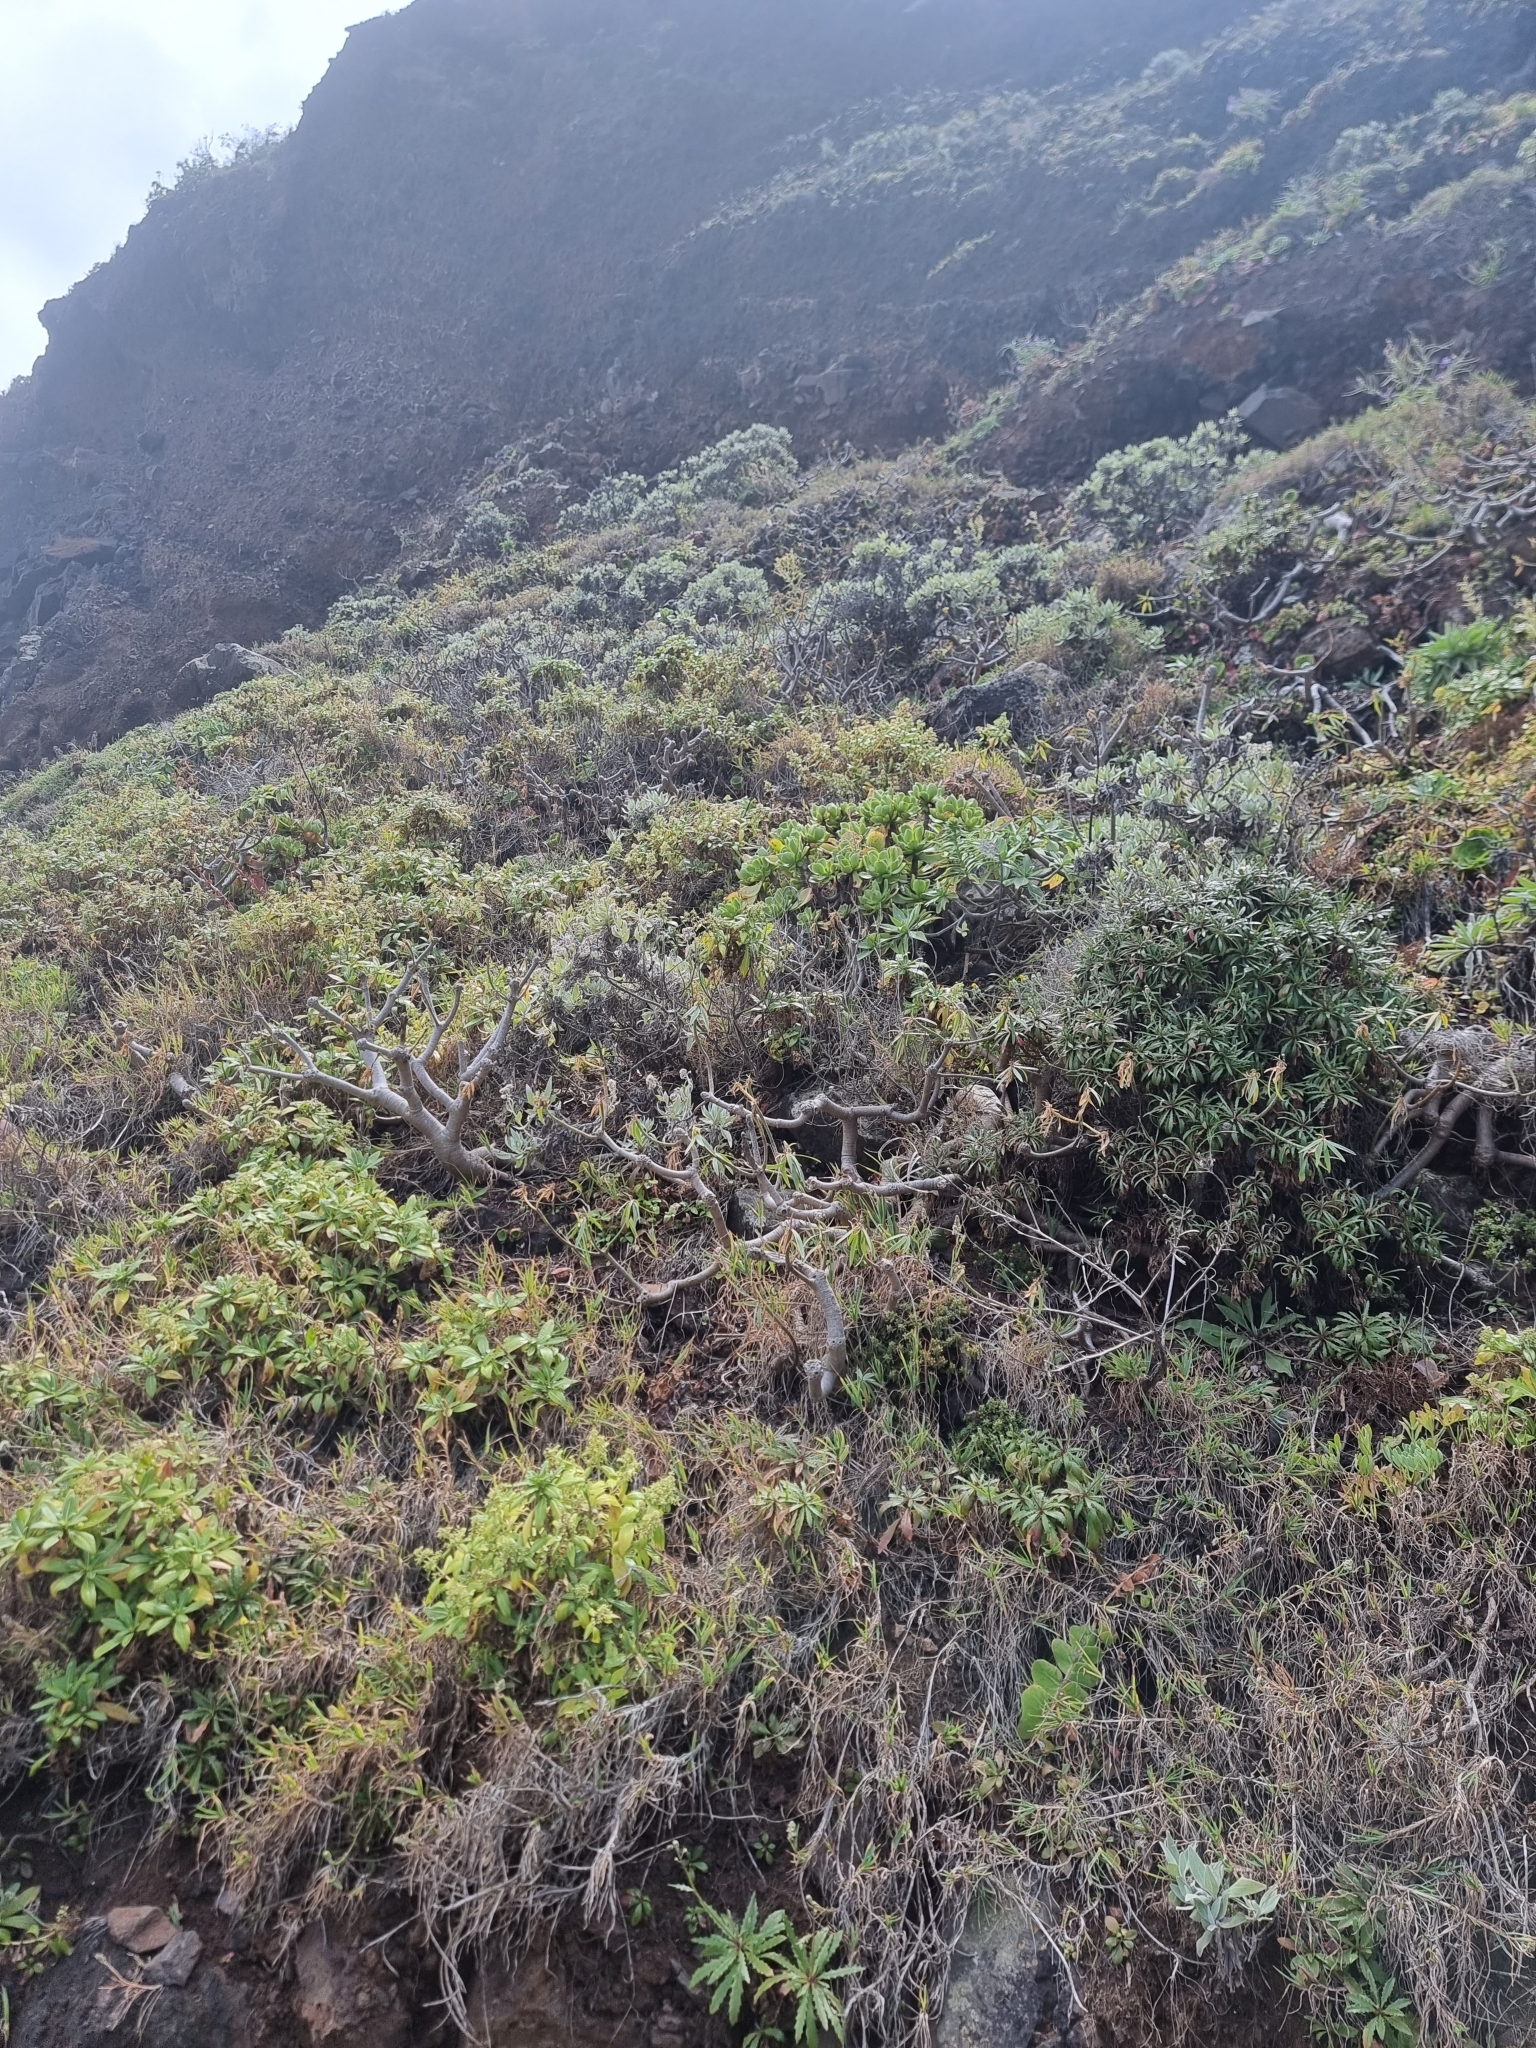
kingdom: Plantae
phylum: Tracheophyta
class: Magnoliopsida
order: Saxifragales
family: Crassulaceae
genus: Aeonium
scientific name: Aeonium glutinosum
